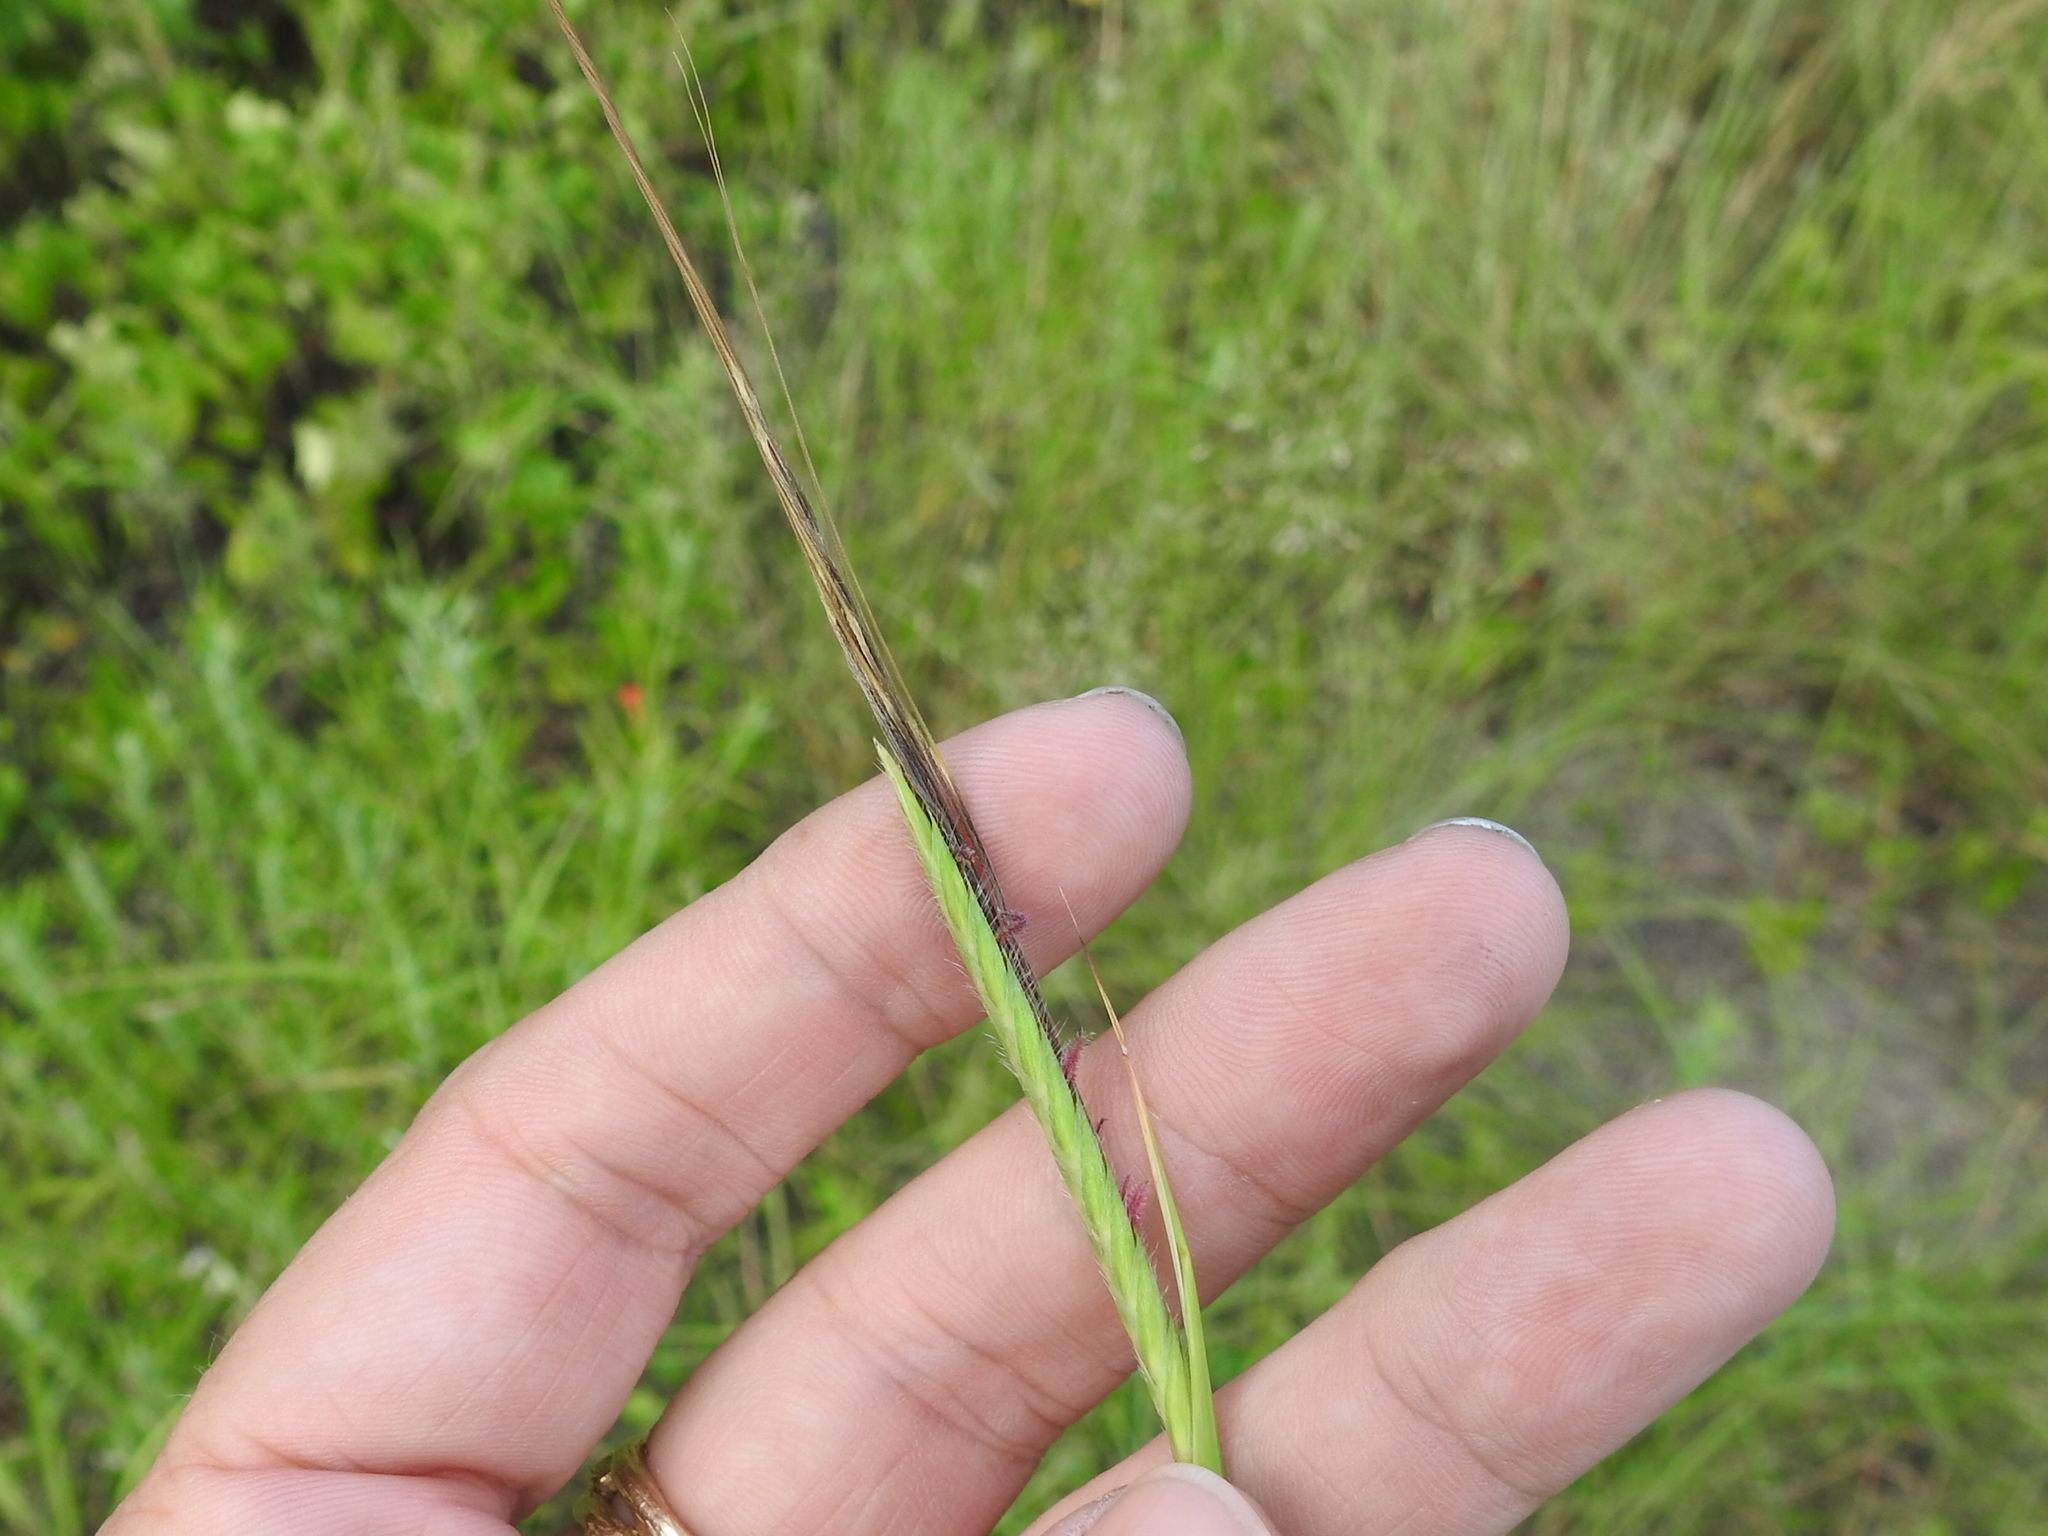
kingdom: Plantae
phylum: Tracheophyta
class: Liliopsida
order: Poales
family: Poaceae
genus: Heteropogon
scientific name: Heteropogon contortus
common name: Tanglehead
